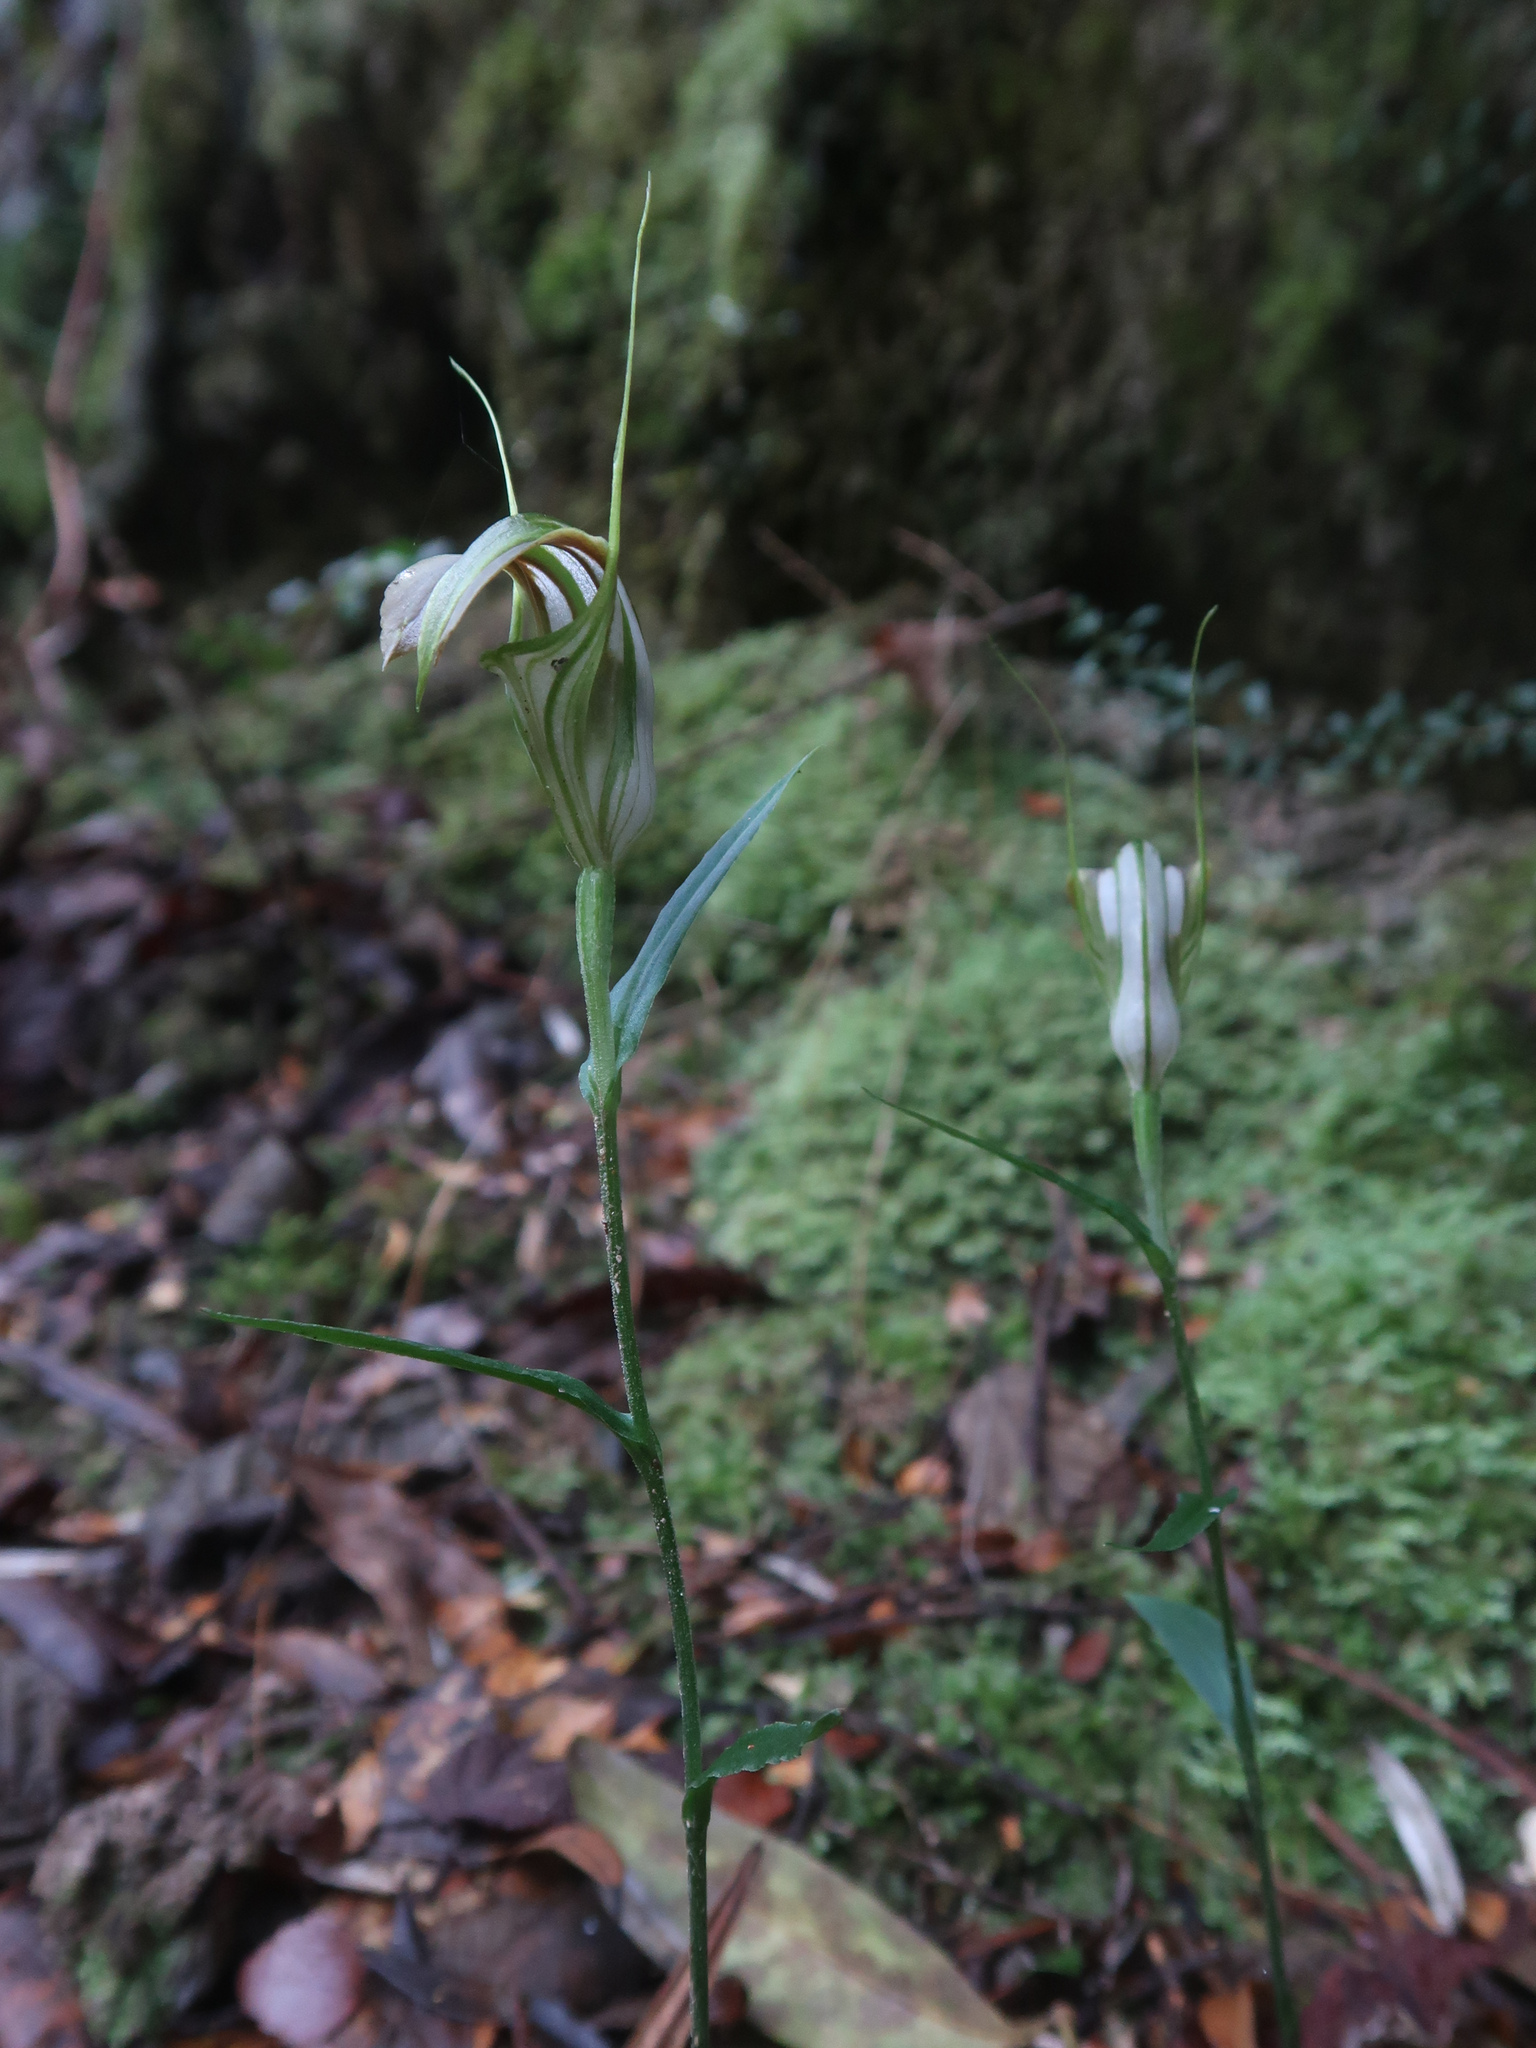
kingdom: Plantae
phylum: Tracheophyta
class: Liliopsida
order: Asparagales
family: Orchidaceae
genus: Pterostylis
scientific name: Pterostylis grandiflora
